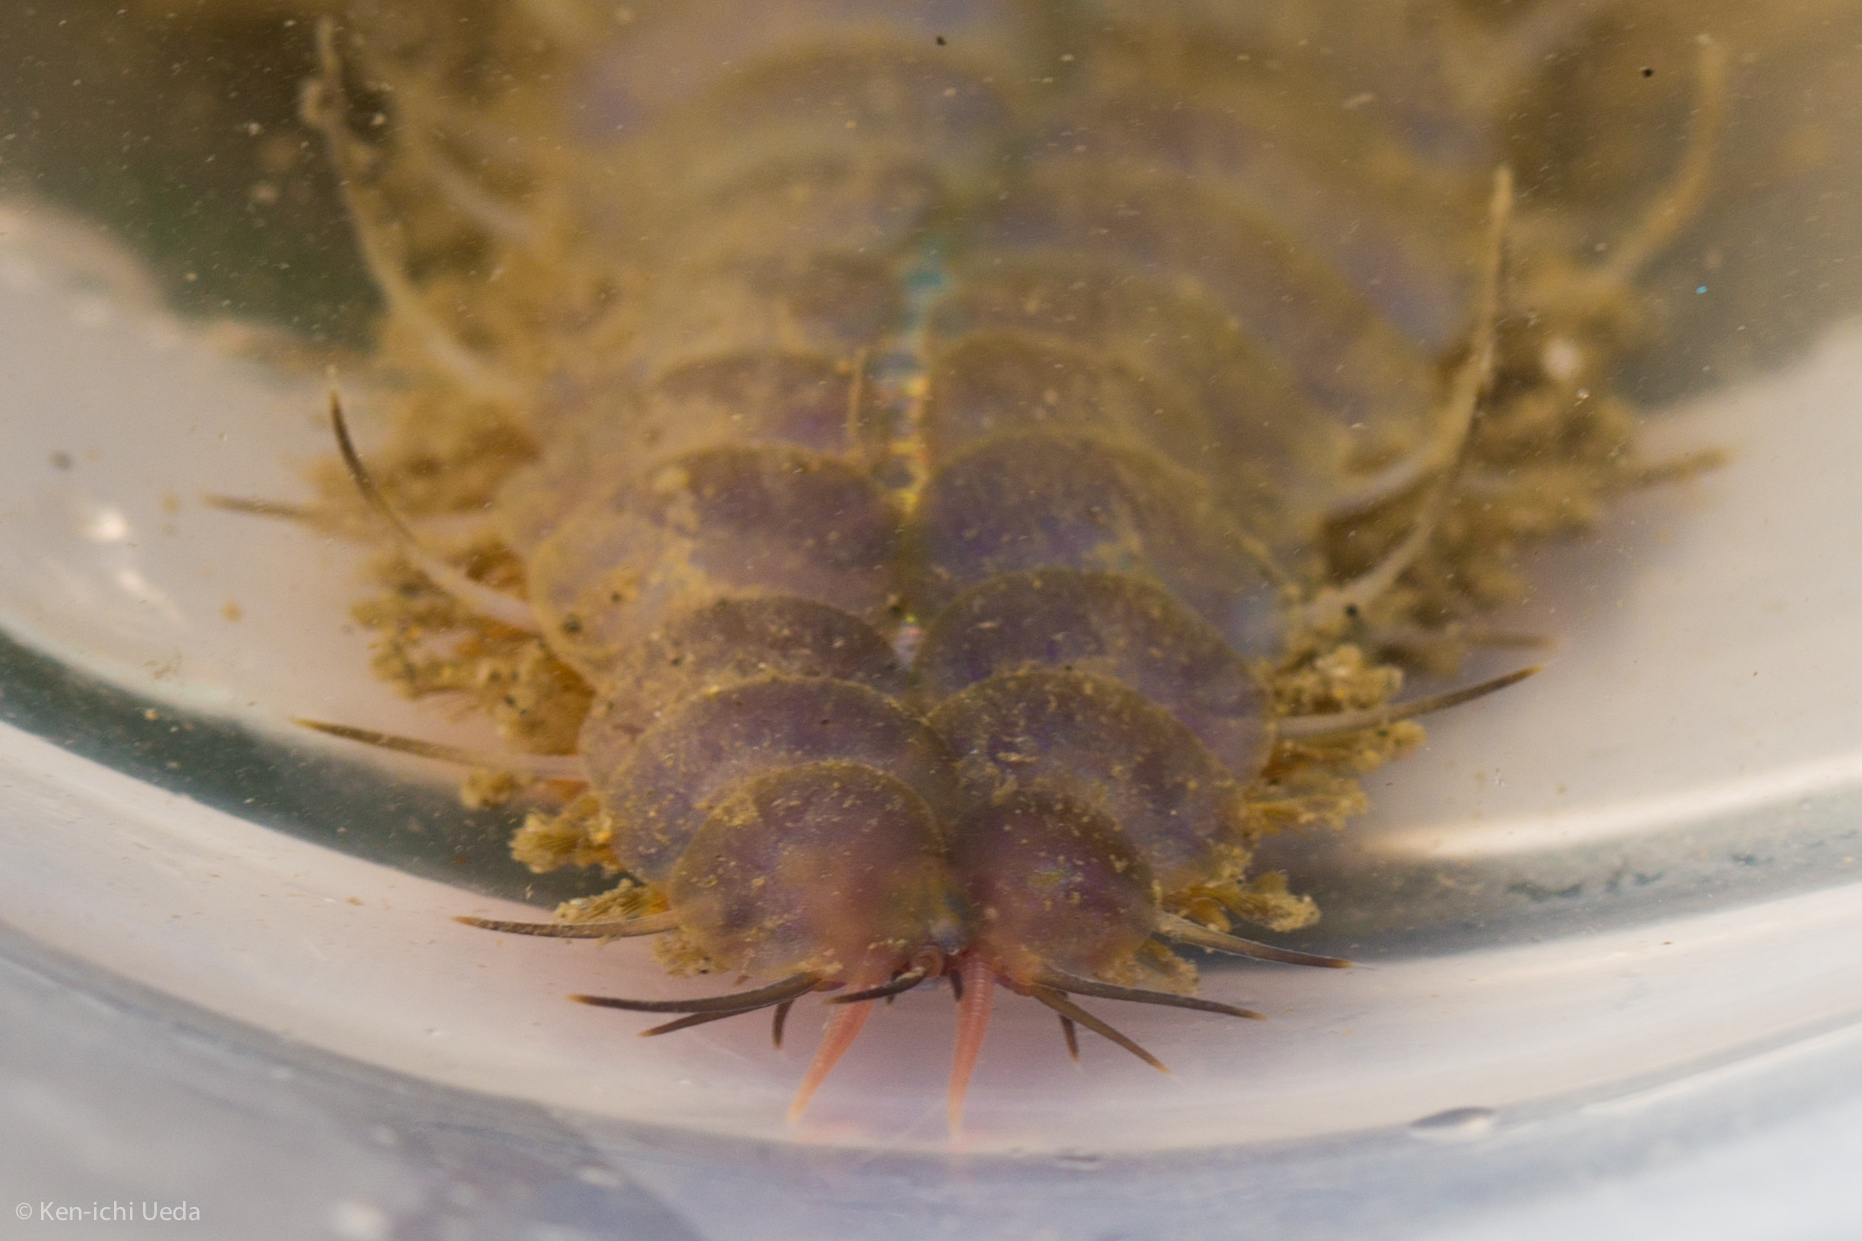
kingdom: Animalia
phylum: Annelida
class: Polychaeta
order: Phyllodocida
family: Polynoidae
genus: Hesperonoe
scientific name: Hesperonoe complanata
